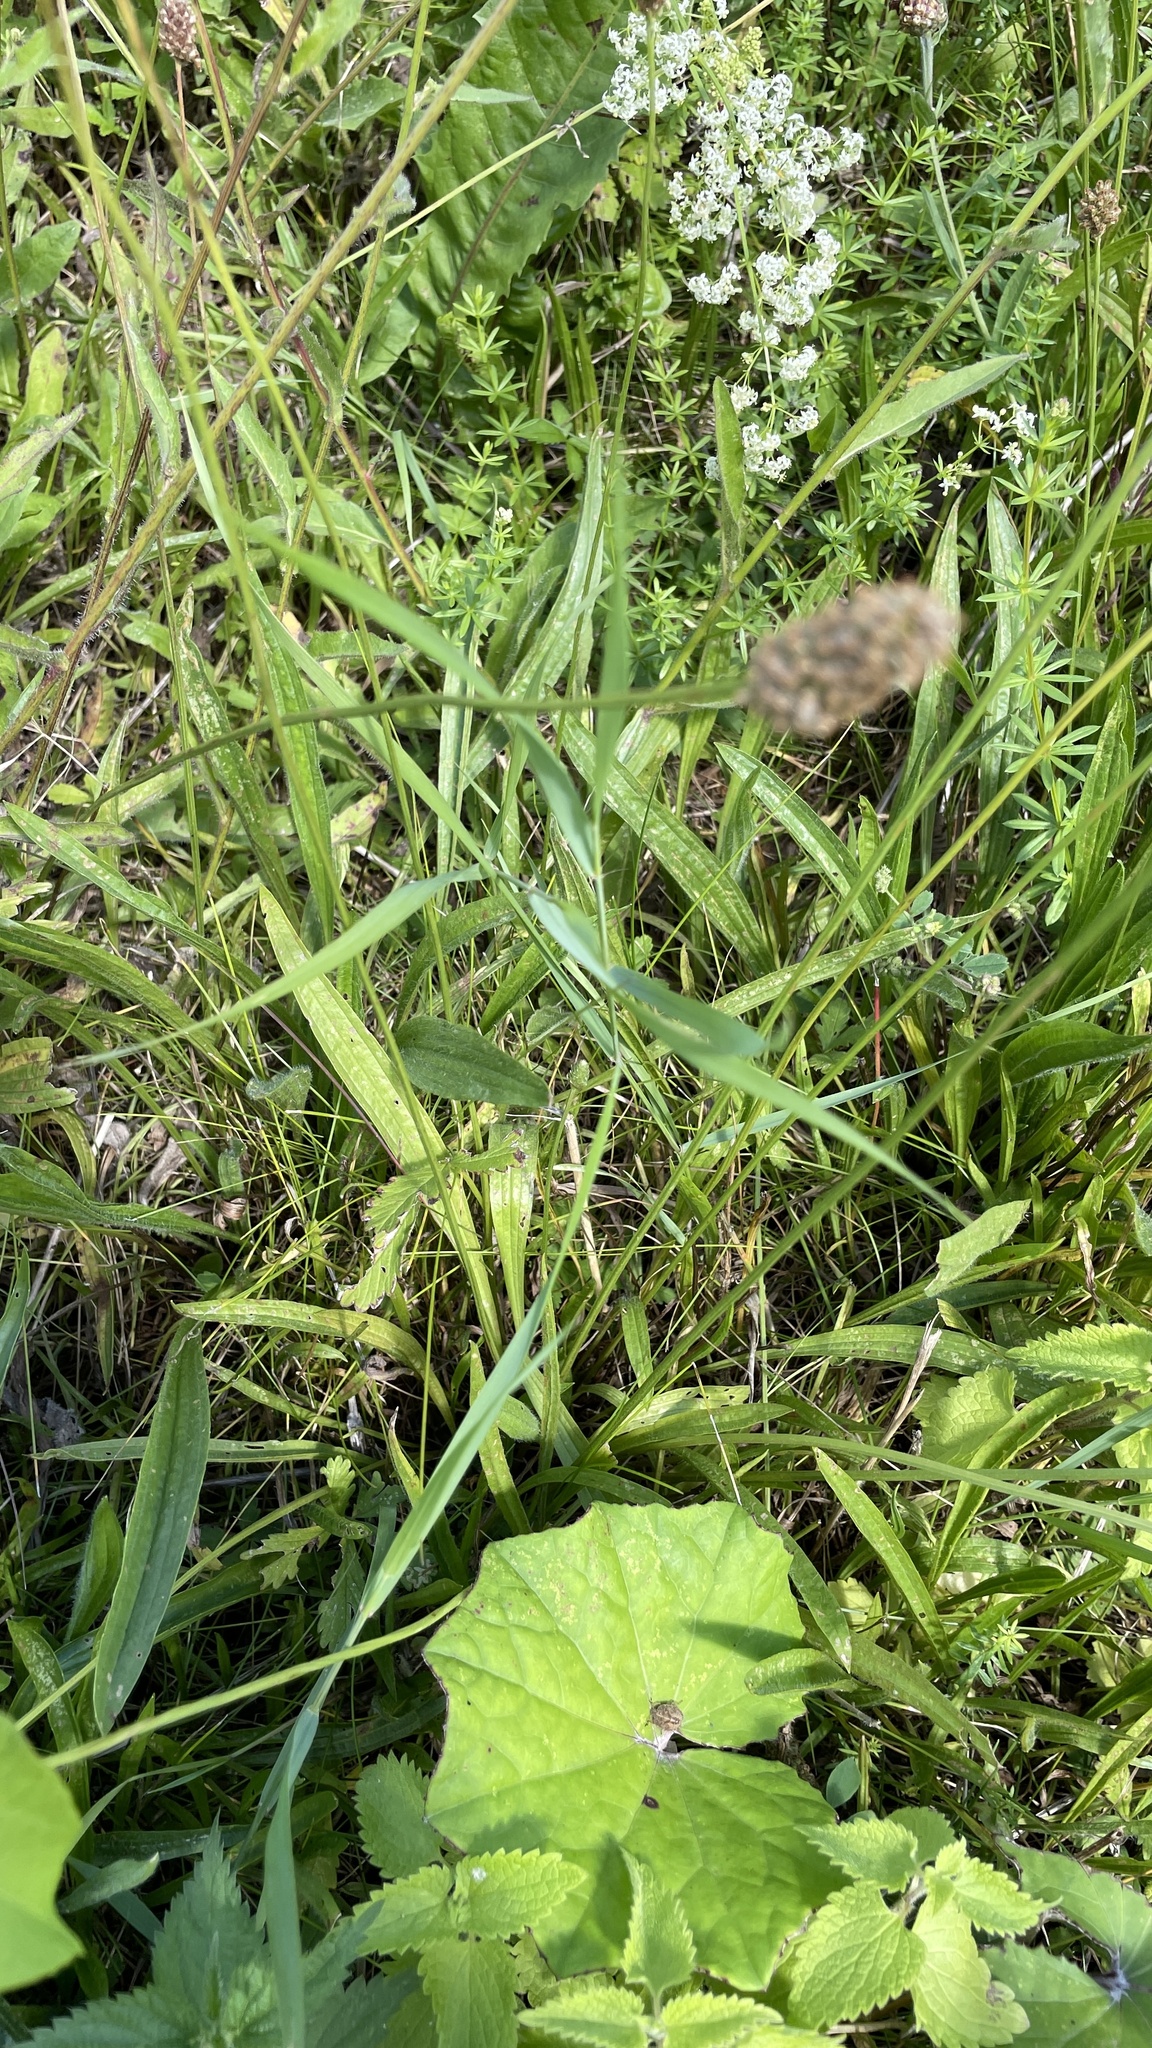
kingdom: Plantae
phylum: Tracheophyta
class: Magnoliopsida
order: Lamiales
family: Plantaginaceae
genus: Plantago
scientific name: Plantago lanceolata
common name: Ribwort plantain
